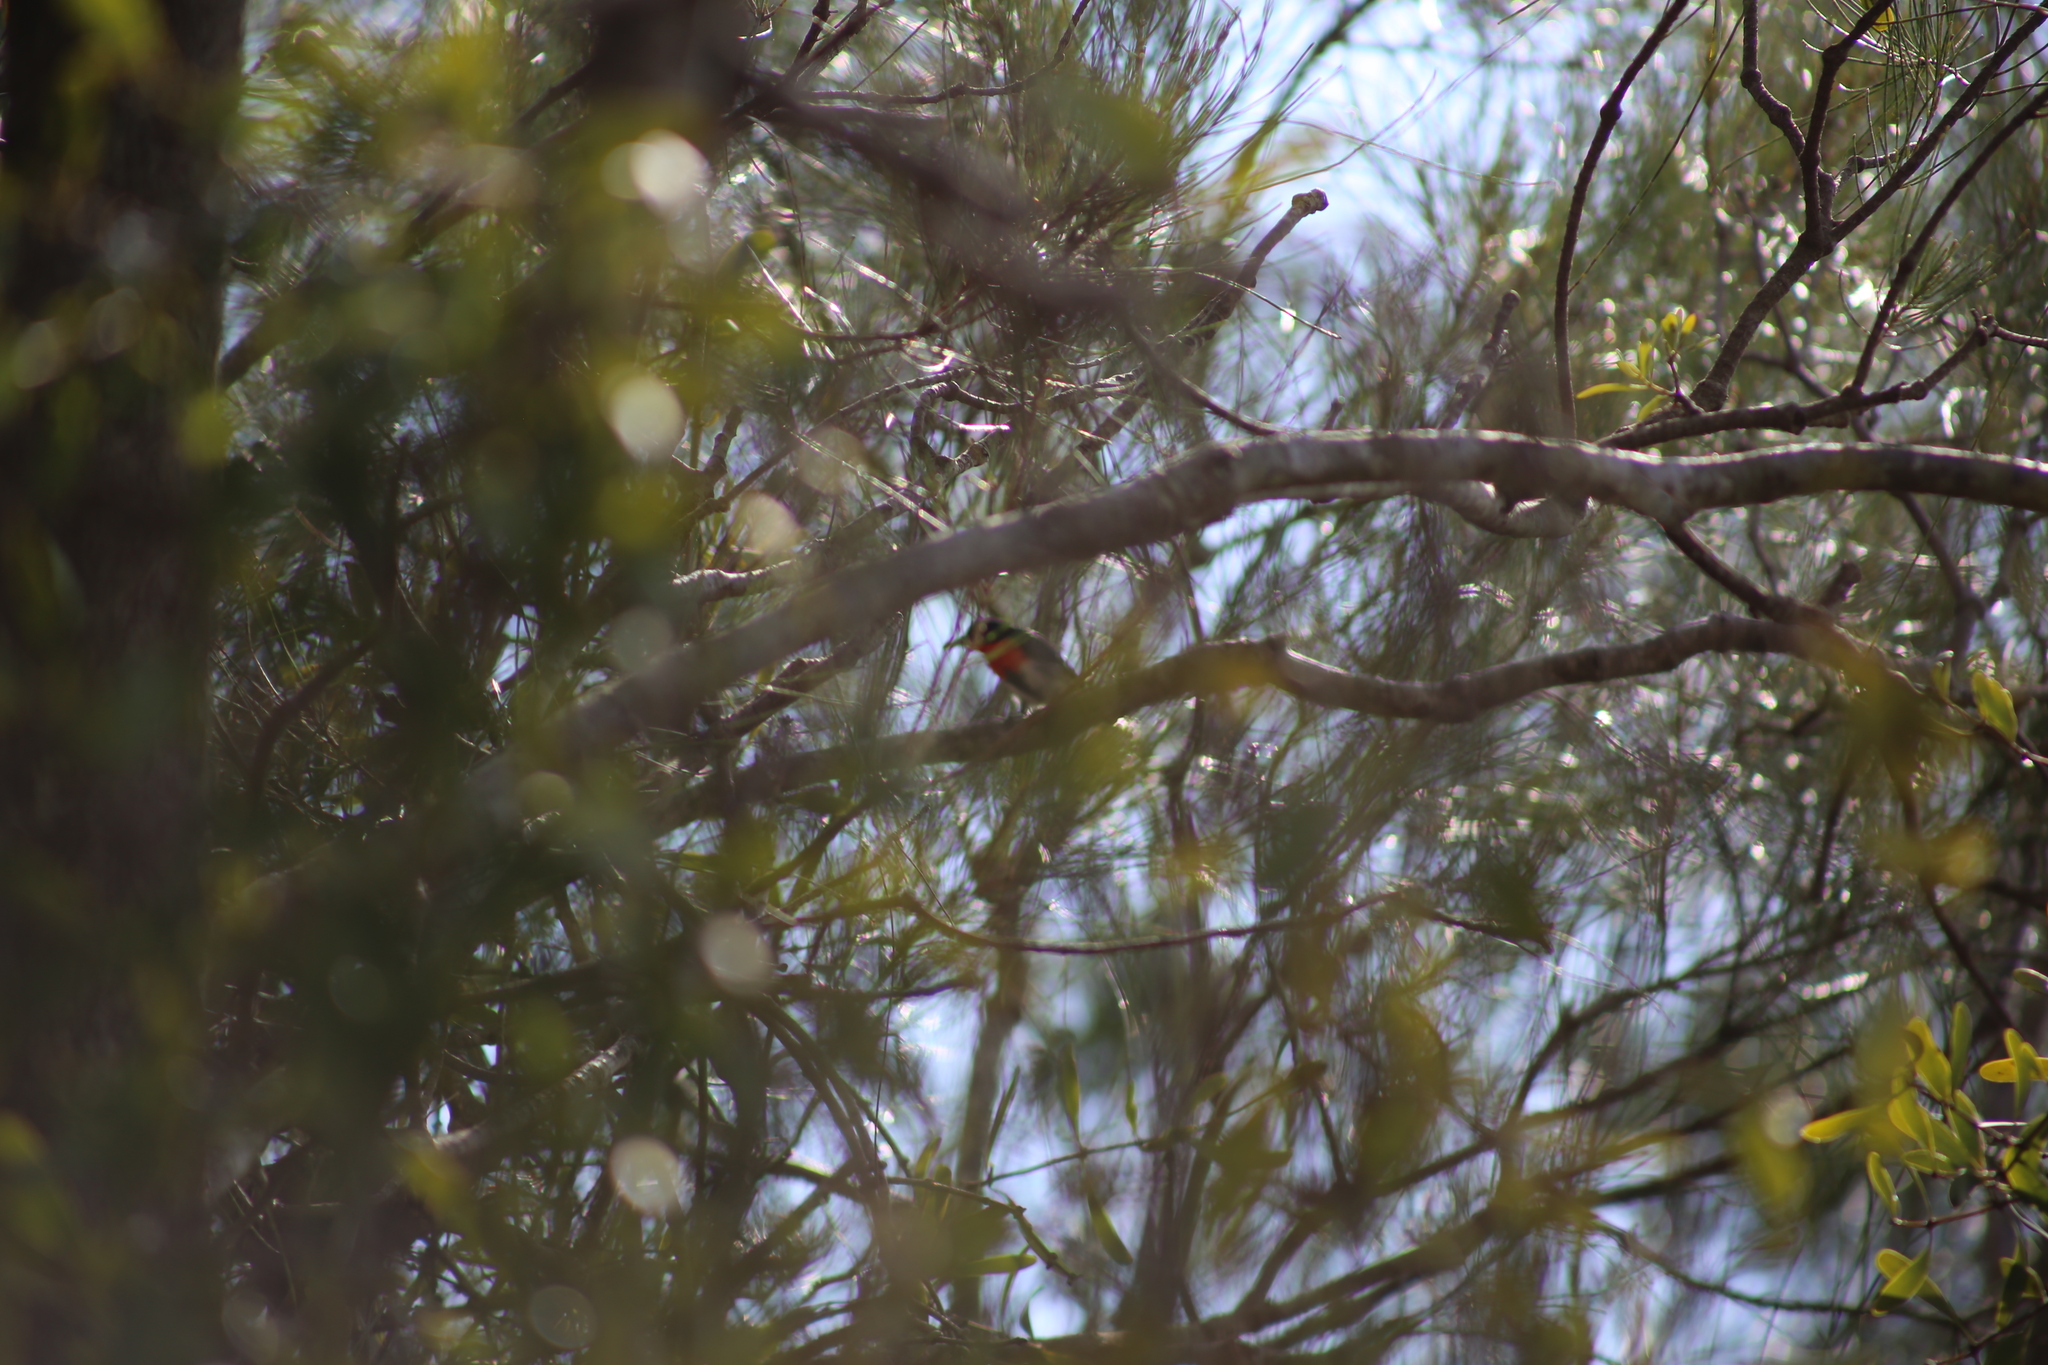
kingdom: Animalia
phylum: Chordata
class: Aves
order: Passeriformes
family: Dicaeidae
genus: Dicaeum
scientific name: Dicaeum hirundinaceum
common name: Mistletoebird
